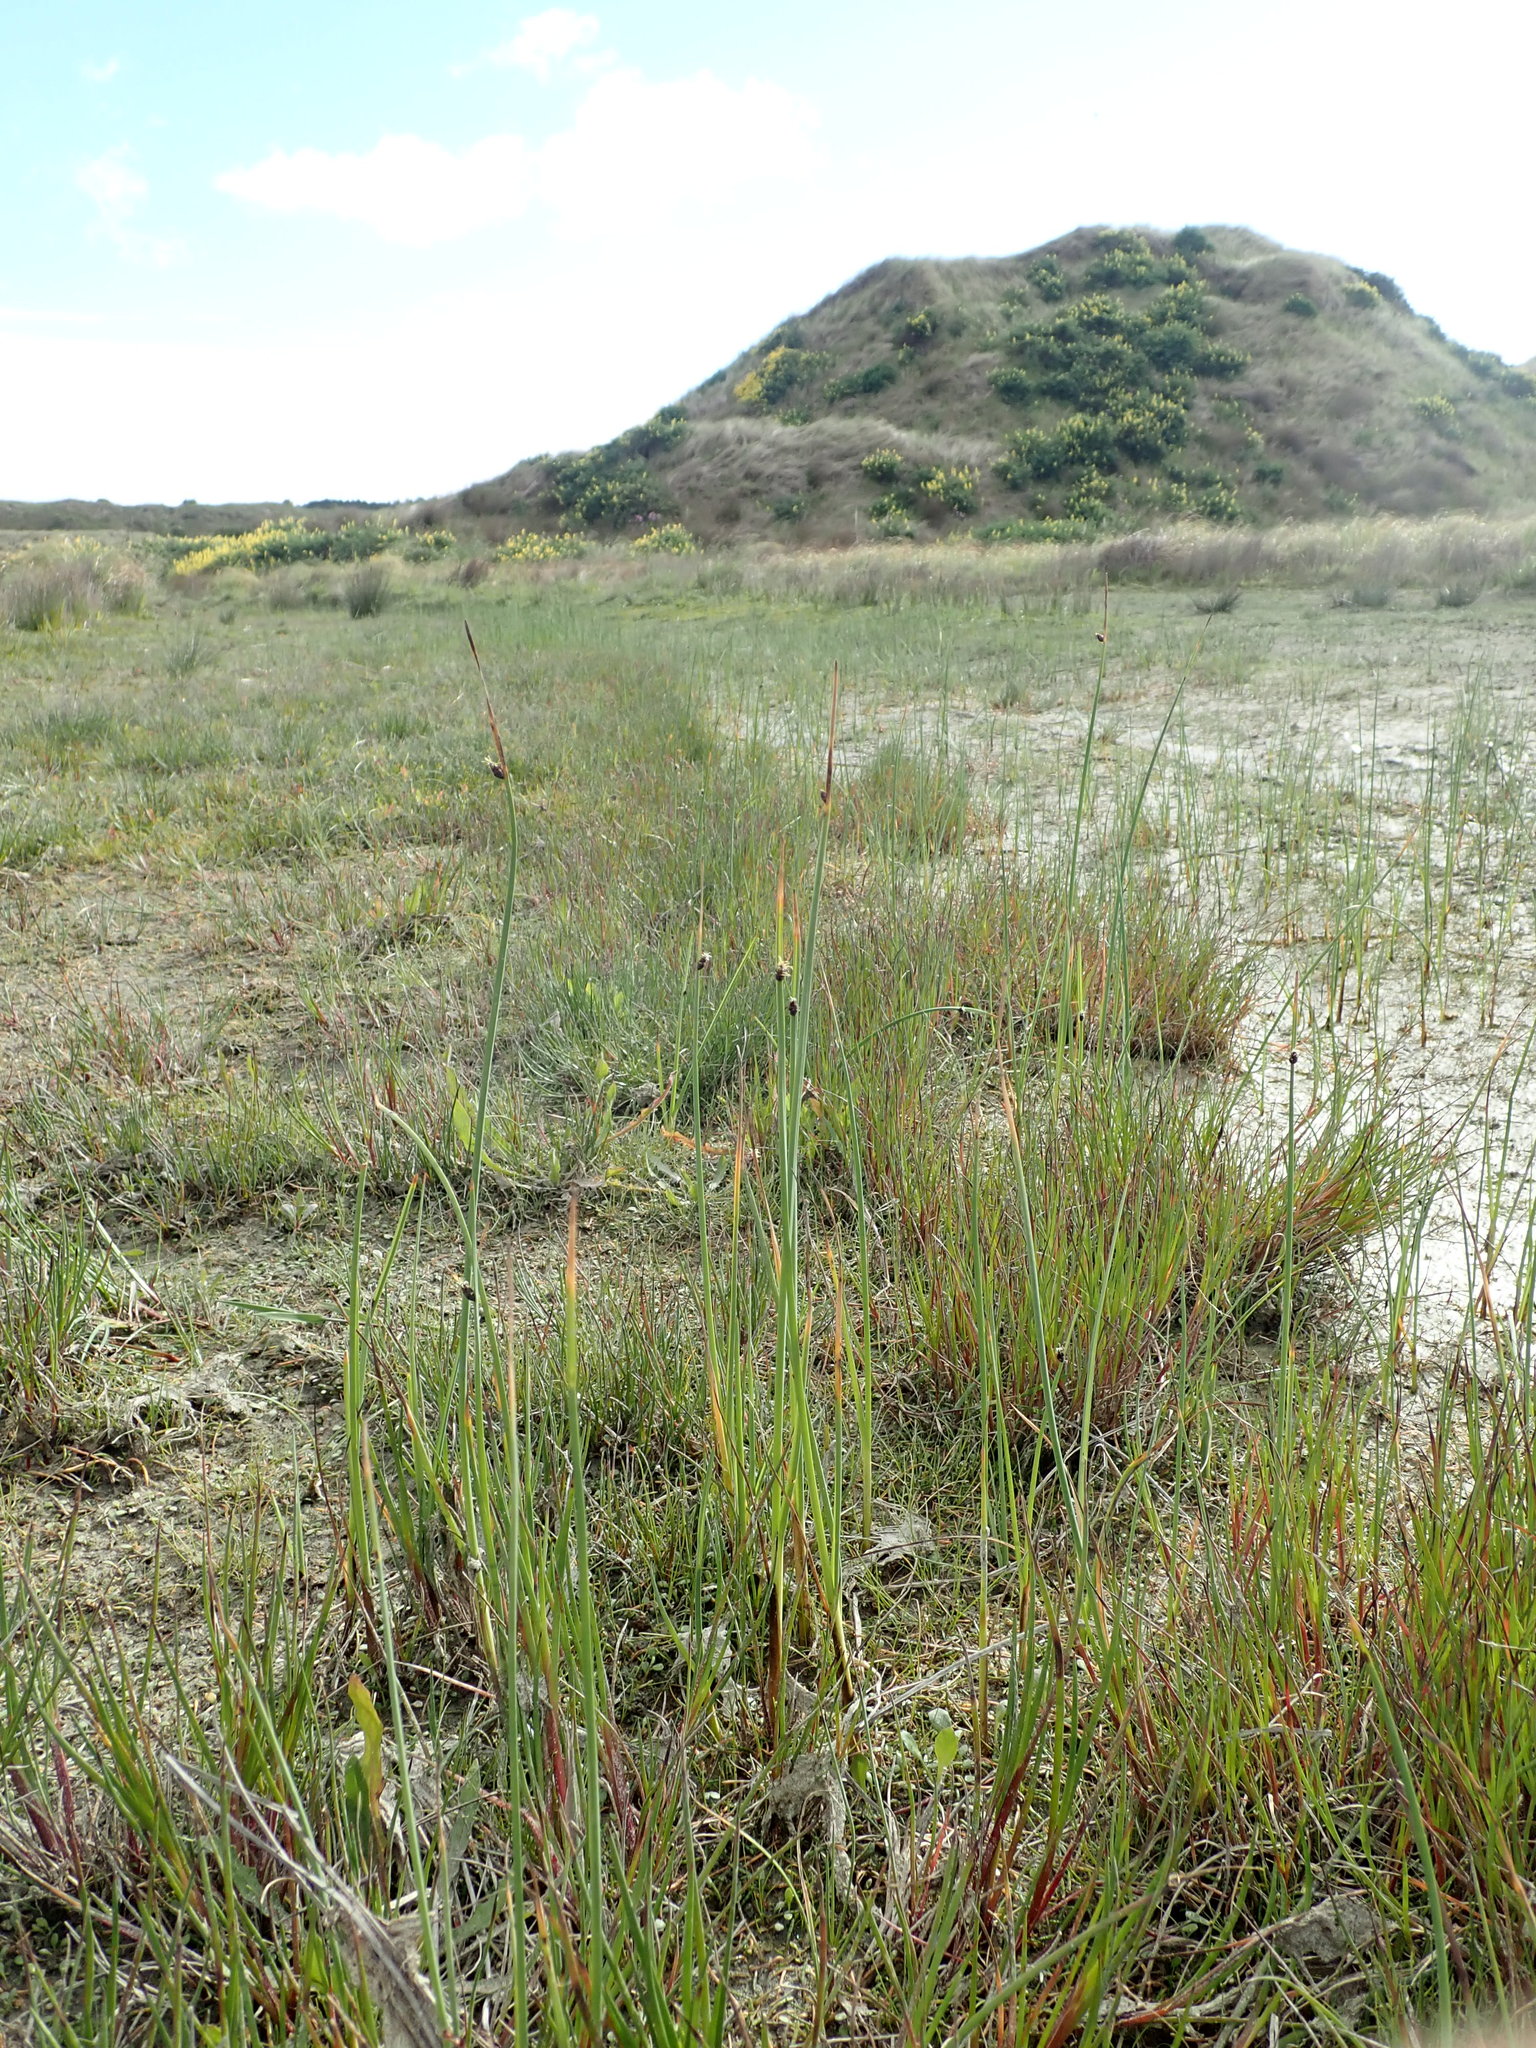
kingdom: Plantae
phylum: Tracheophyta
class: Liliopsida
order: Poales
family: Cyperaceae
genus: Schoenoplectus
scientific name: Schoenoplectus pungens
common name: Sharp club-rush
